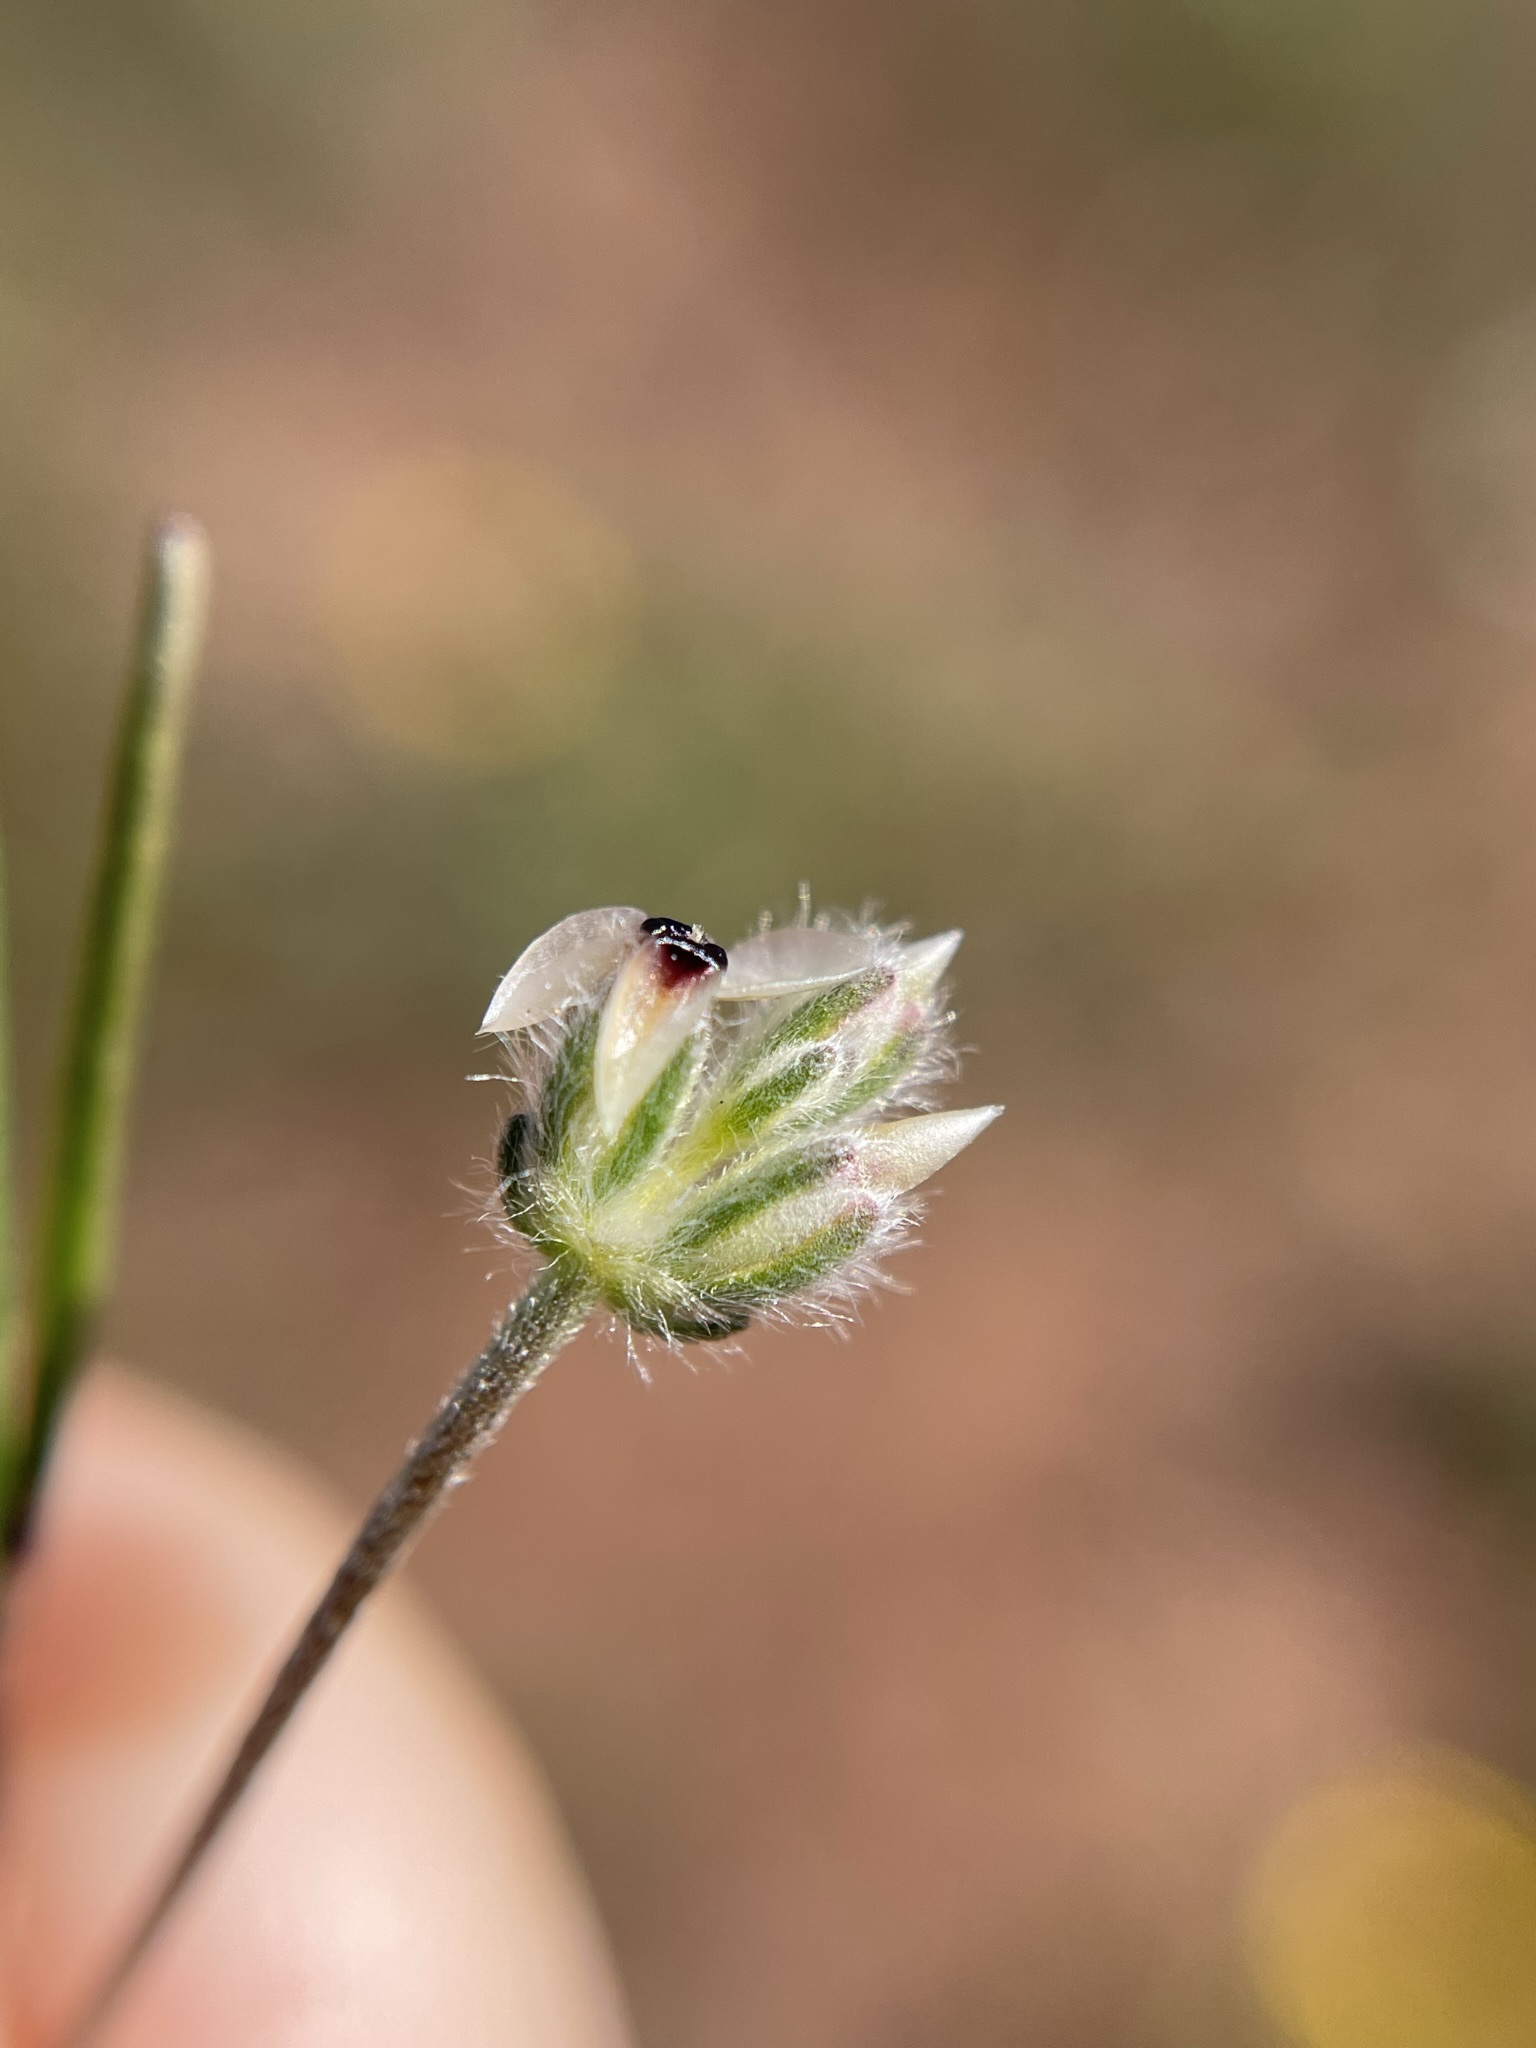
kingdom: Plantae
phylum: Tracheophyta
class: Magnoliopsida
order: Lamiales
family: Plantaginaceae
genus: Plantago
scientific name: Plantago erecta
